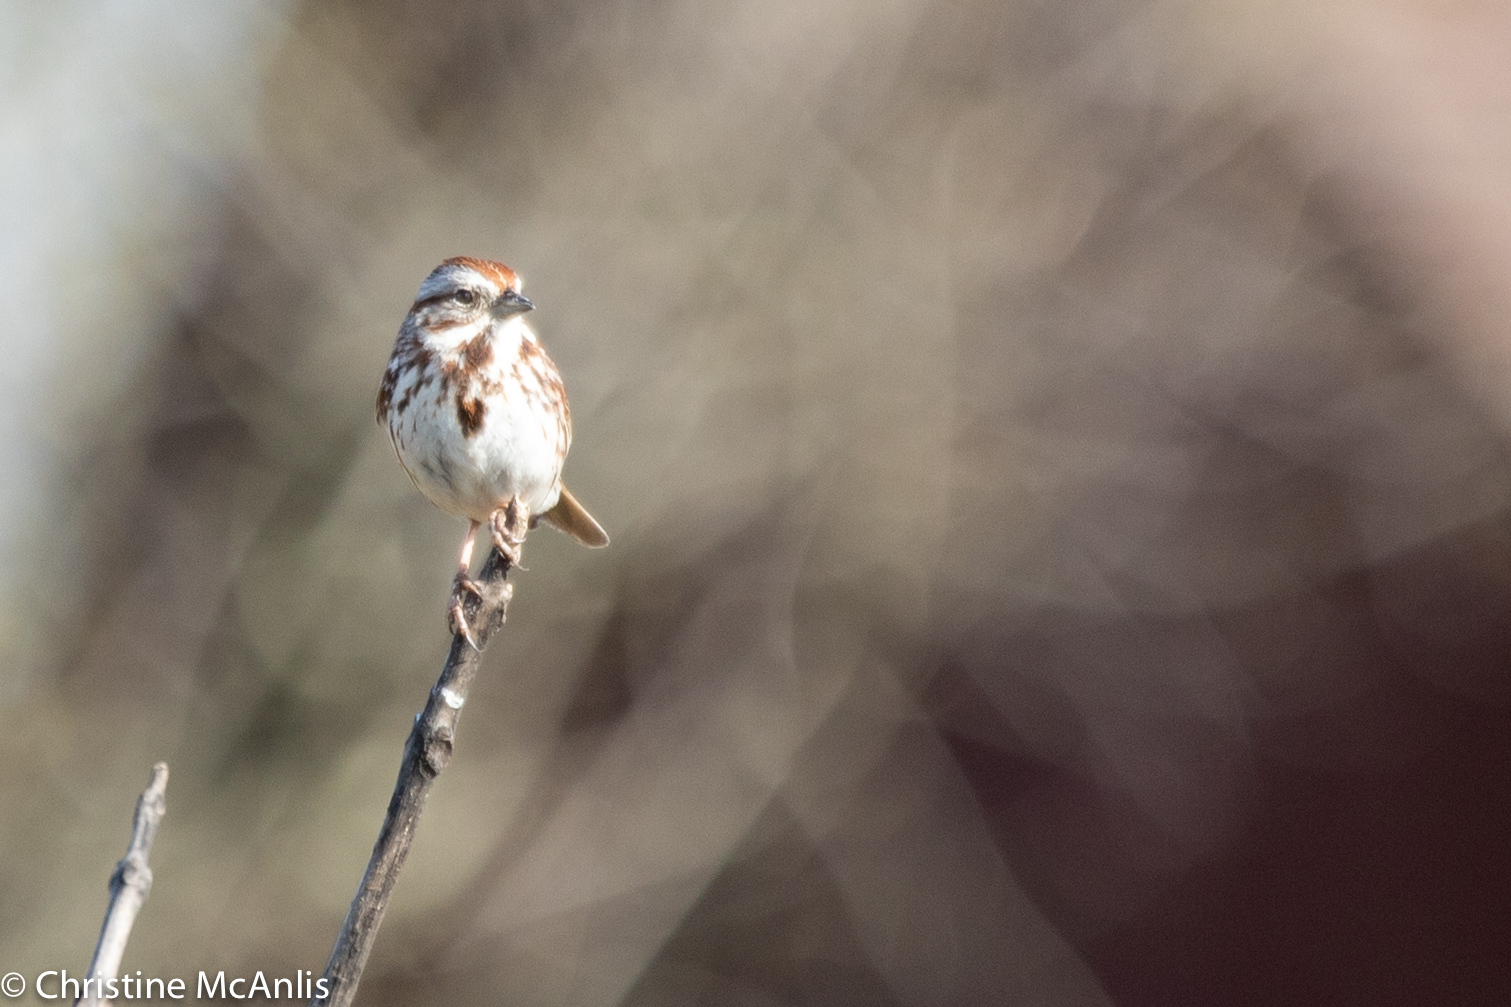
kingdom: Animalia
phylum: Chordata
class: Aves
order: Passeriformes
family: Passerellidae
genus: Melospiza
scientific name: Melospiza melodia
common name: Song sparrow
